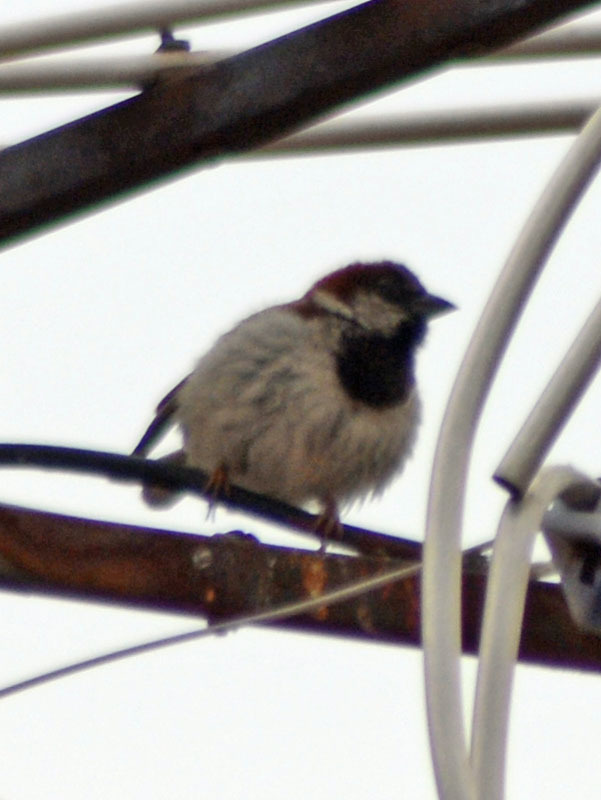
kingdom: Animalia
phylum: Chordata
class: Aves
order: Passeriformes
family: Passeridae
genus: Passer
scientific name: Passer domesticus
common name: House sparrow
